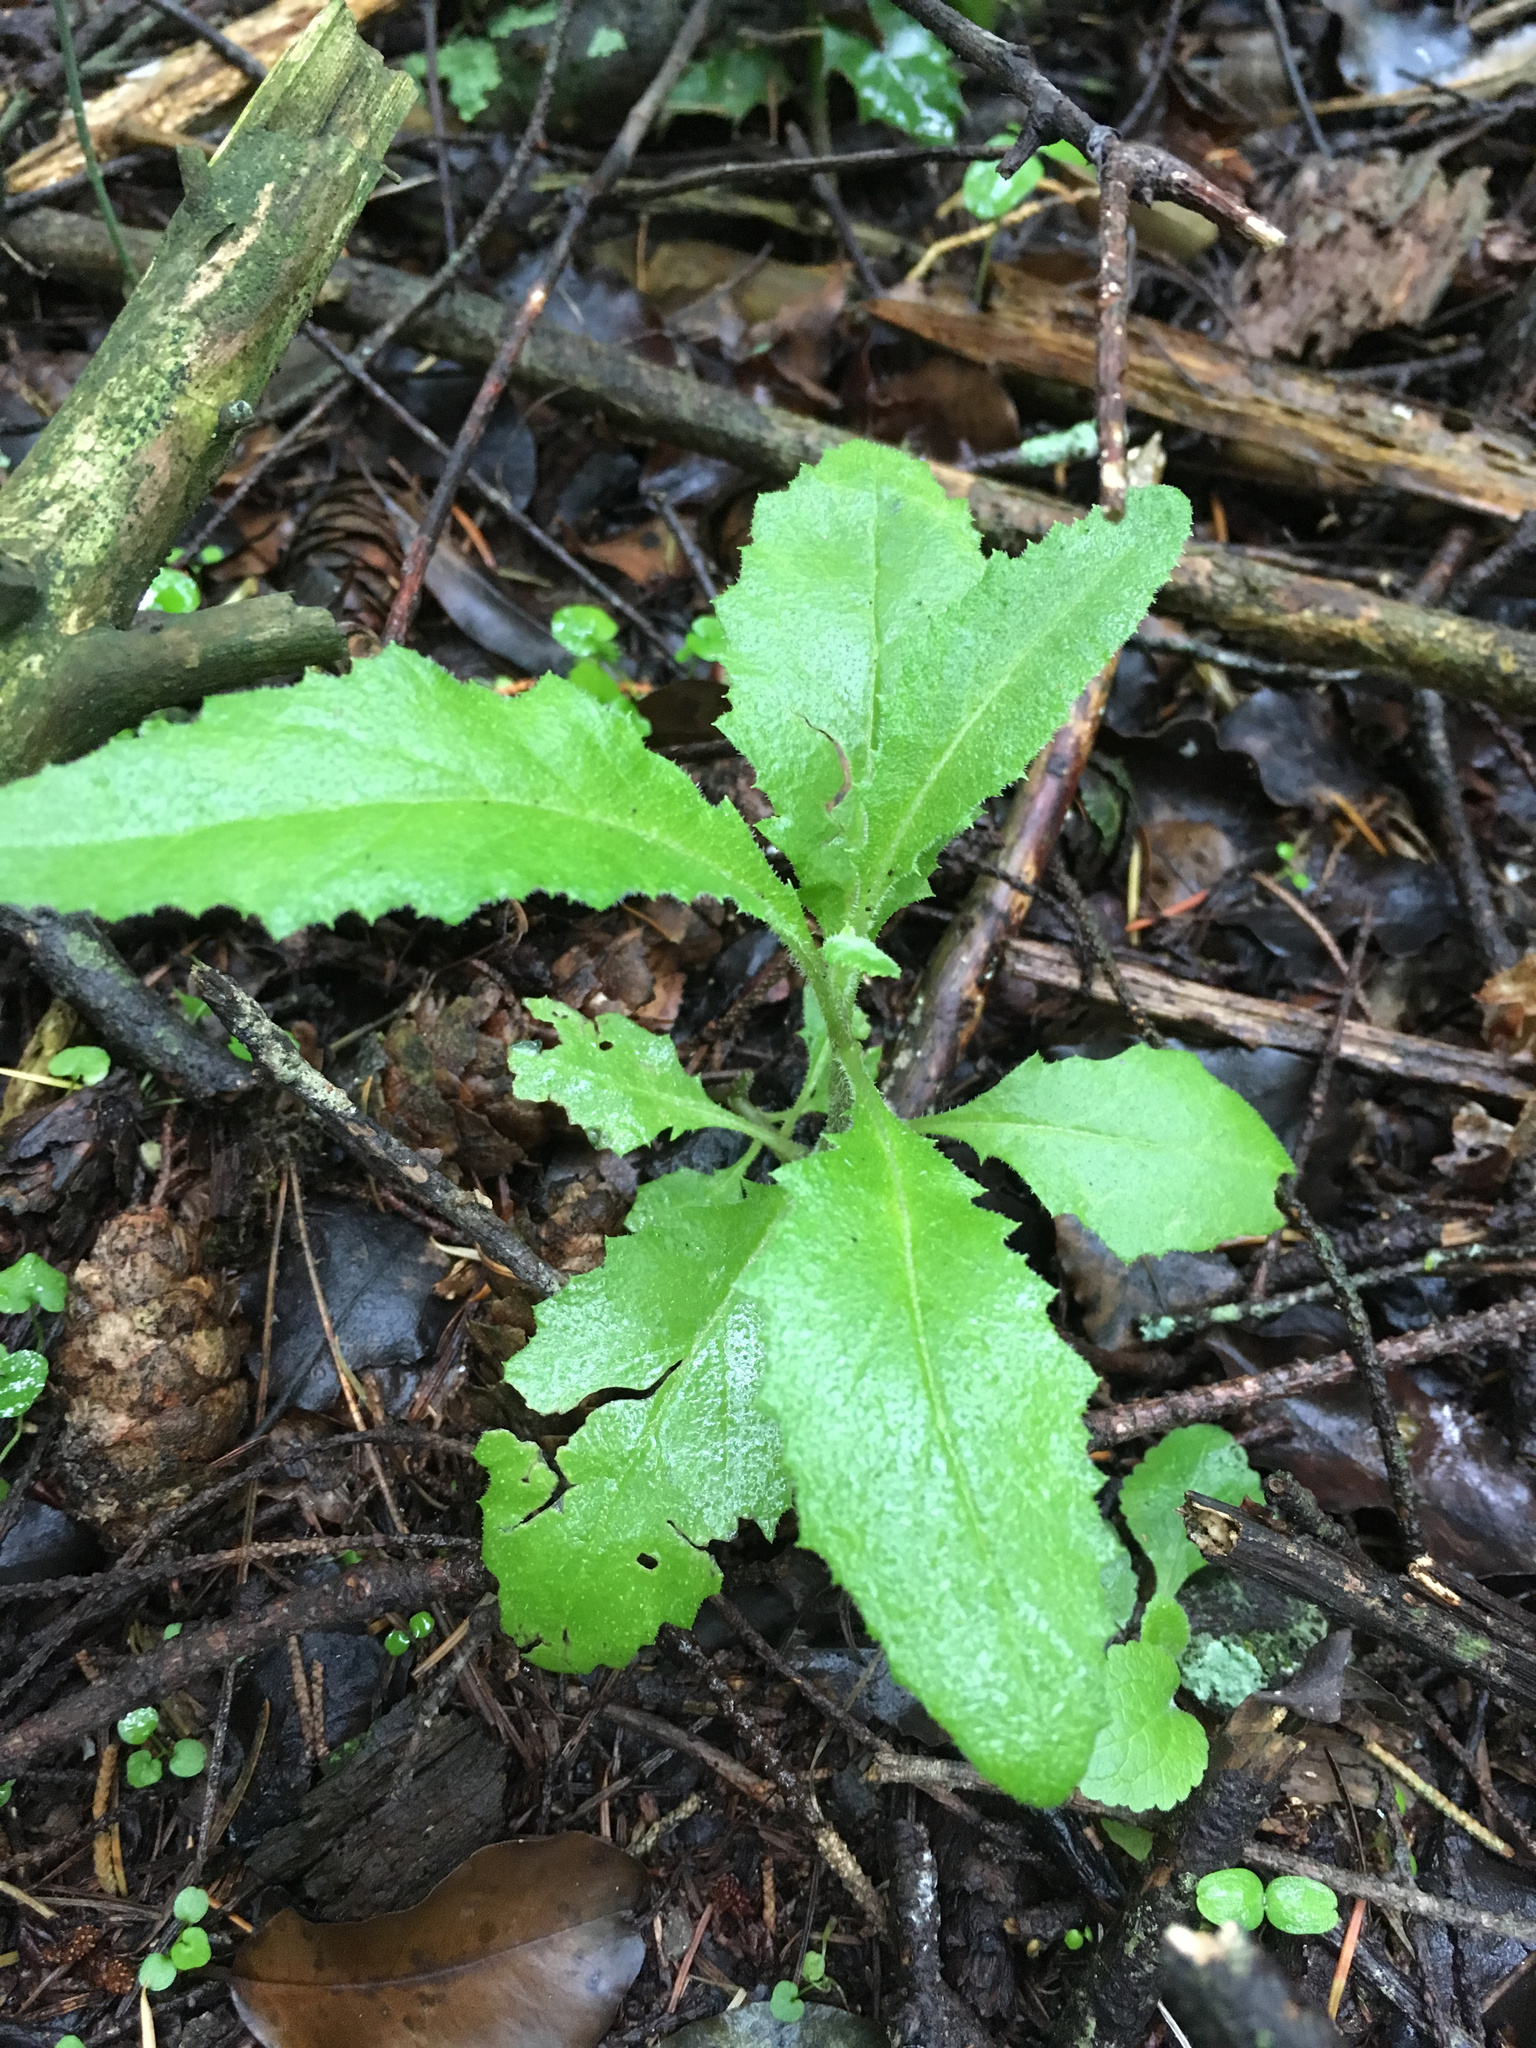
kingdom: Plantae
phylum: Tracheophyta
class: Magnoliopsida
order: Asterales
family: Asteraceae
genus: Senecio
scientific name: Senecio minimus
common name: Toothed fireweed
